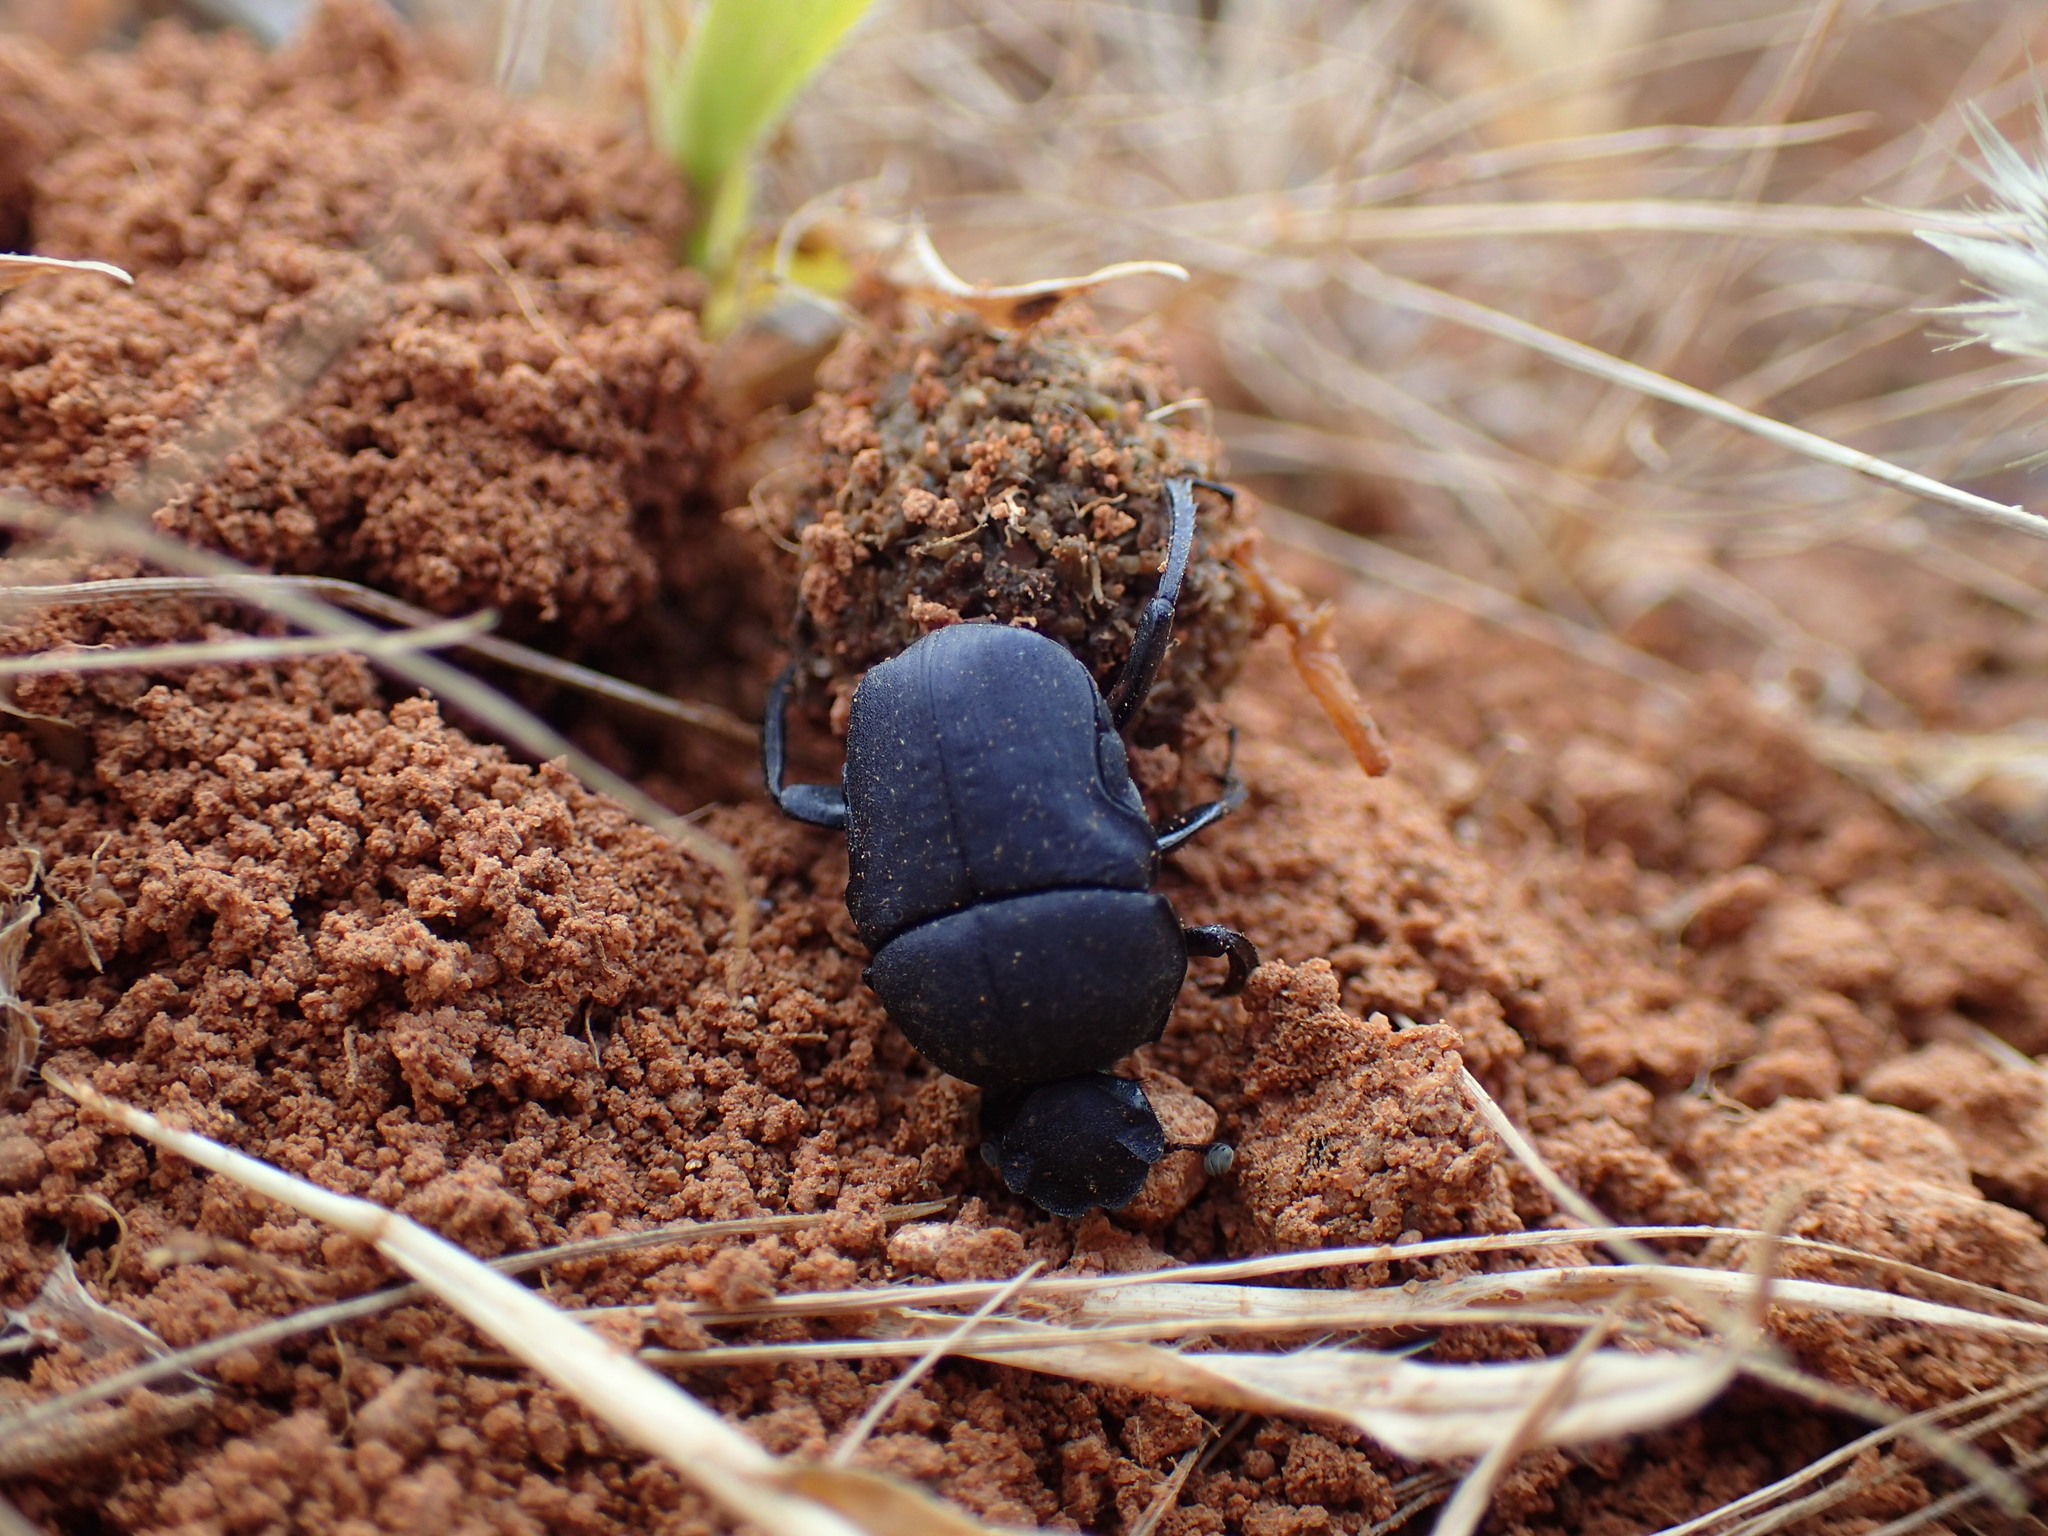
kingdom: Animalia
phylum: Arthropoda
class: Insecta
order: Coleoptera
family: Scarabaeidae
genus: Gymnopleurus
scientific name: Gymnopleurus humanus
